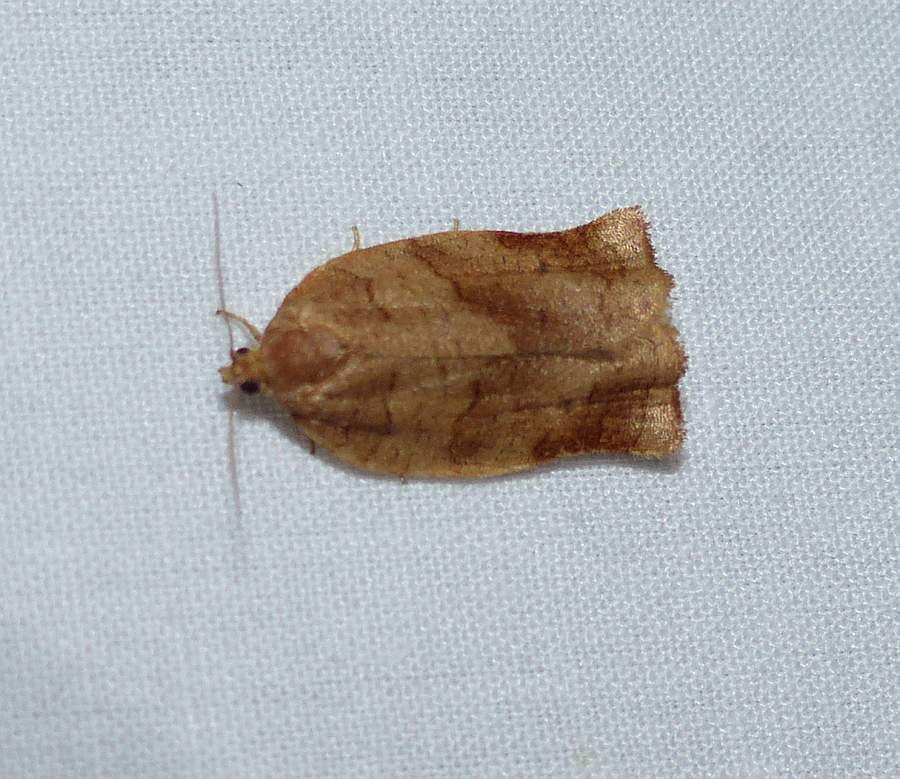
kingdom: Animalia
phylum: Arthropoda
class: Insecta
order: Lepidoptera
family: Tortricidae
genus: Choristoneura
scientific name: Choristoneura rosaceana
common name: Oblique-banded leafroller moth
